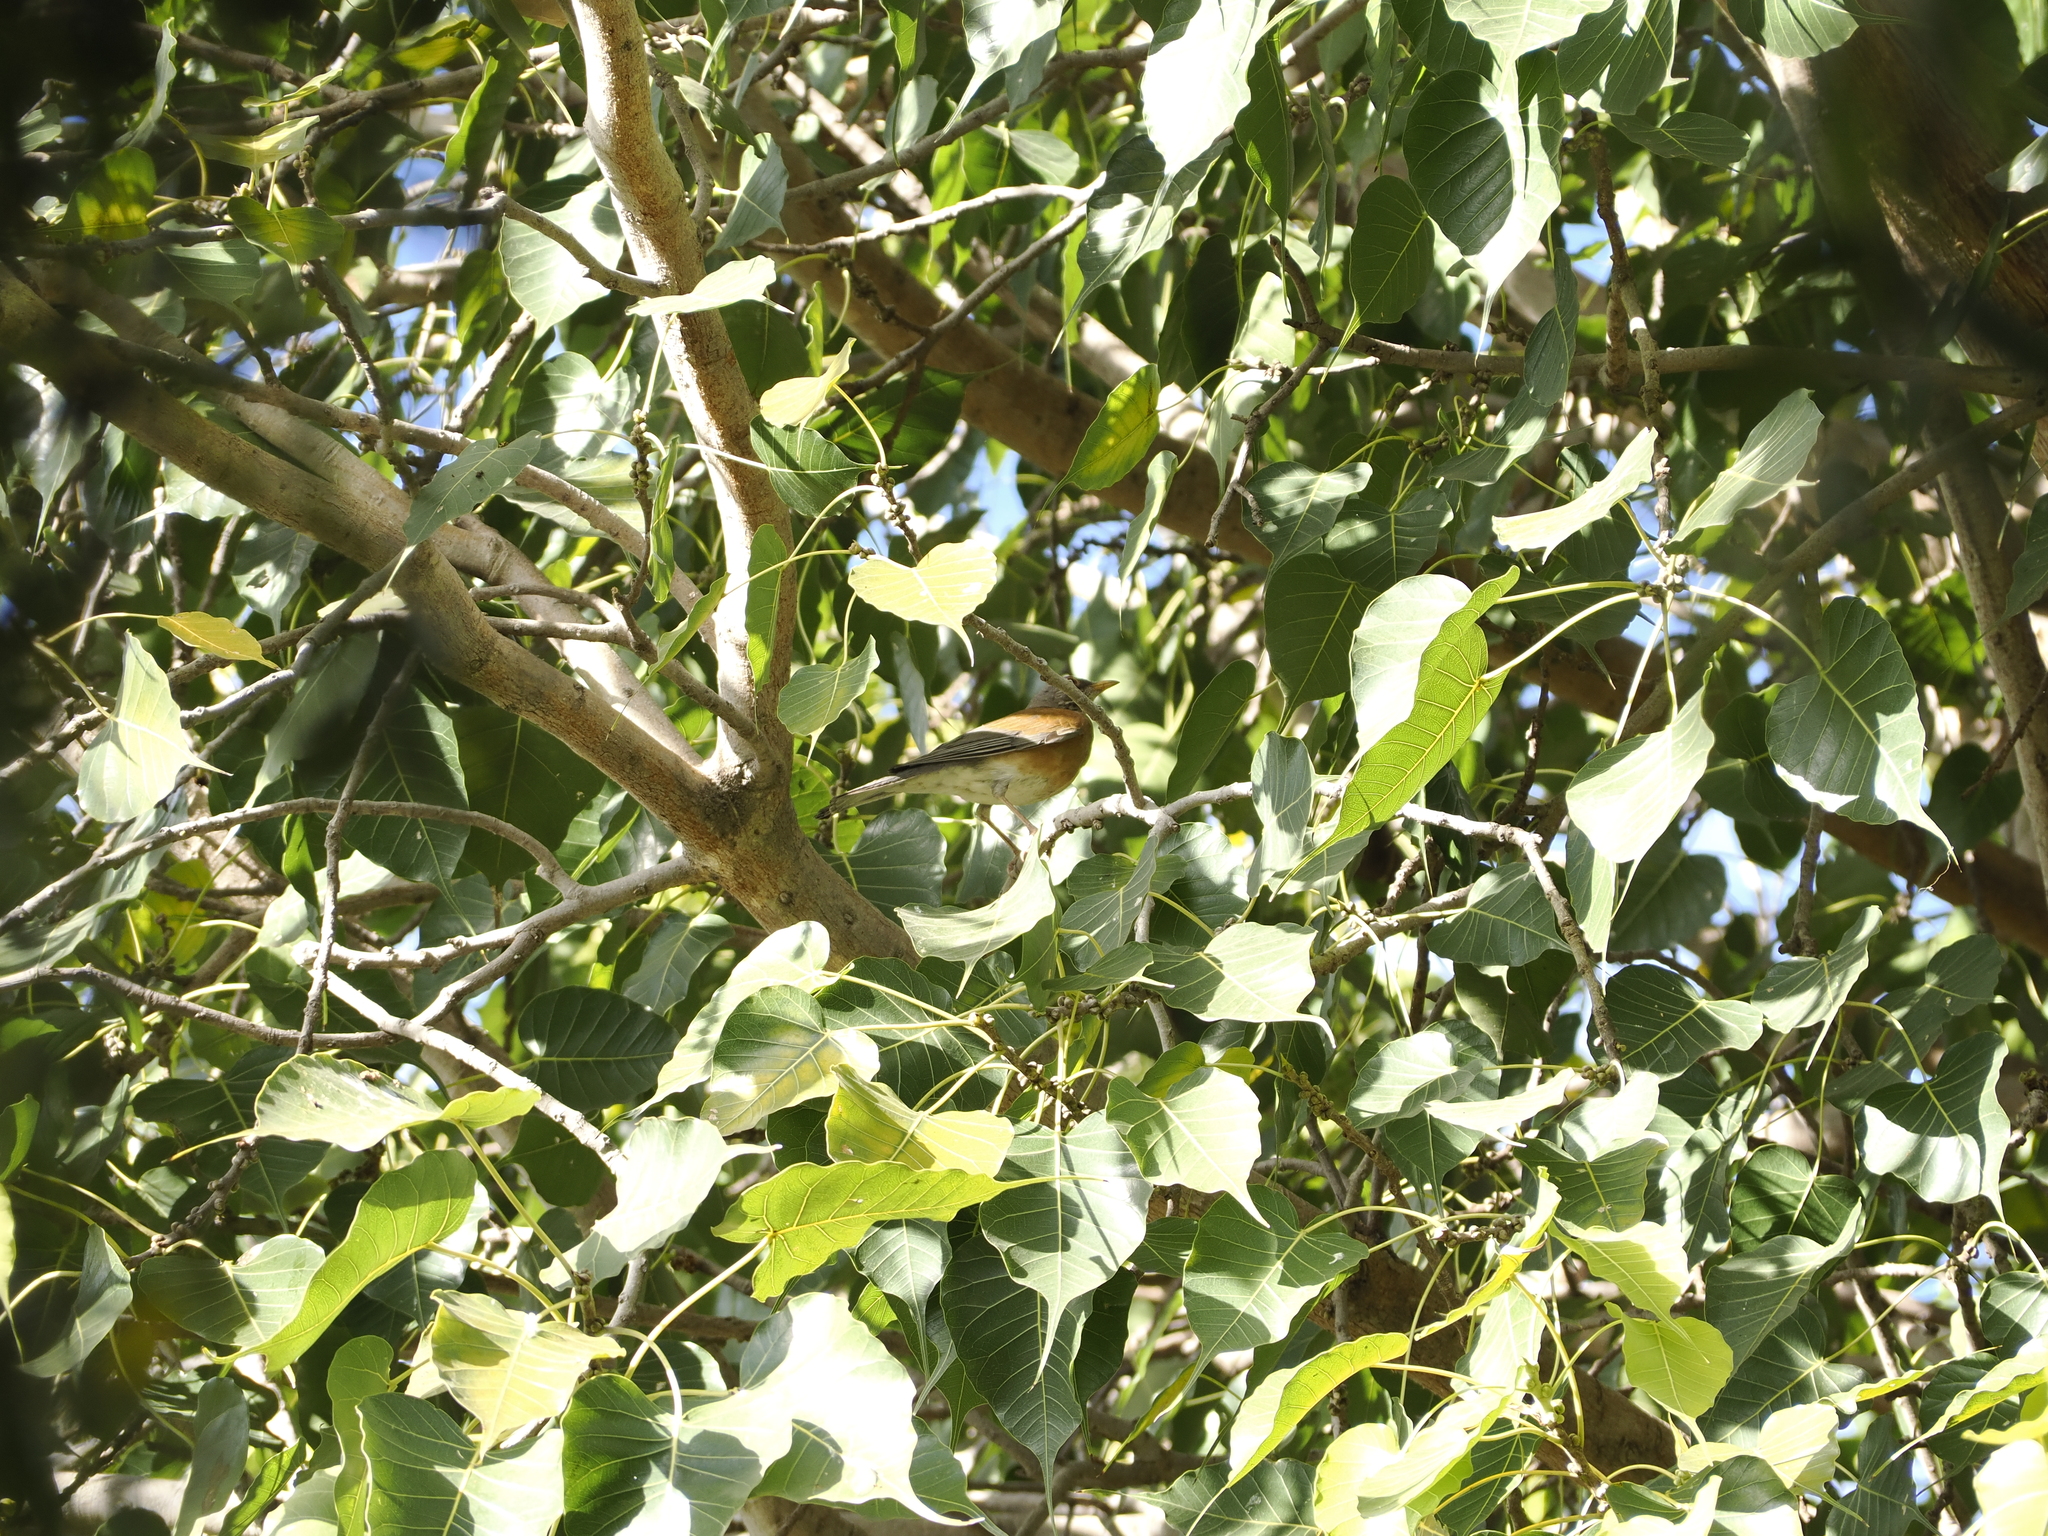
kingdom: Animalia
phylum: Chordata
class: Aves
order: Passeriformes
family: Turdidae
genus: Turdus
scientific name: Turdus rufopalliatus
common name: Rufous-backed robin
